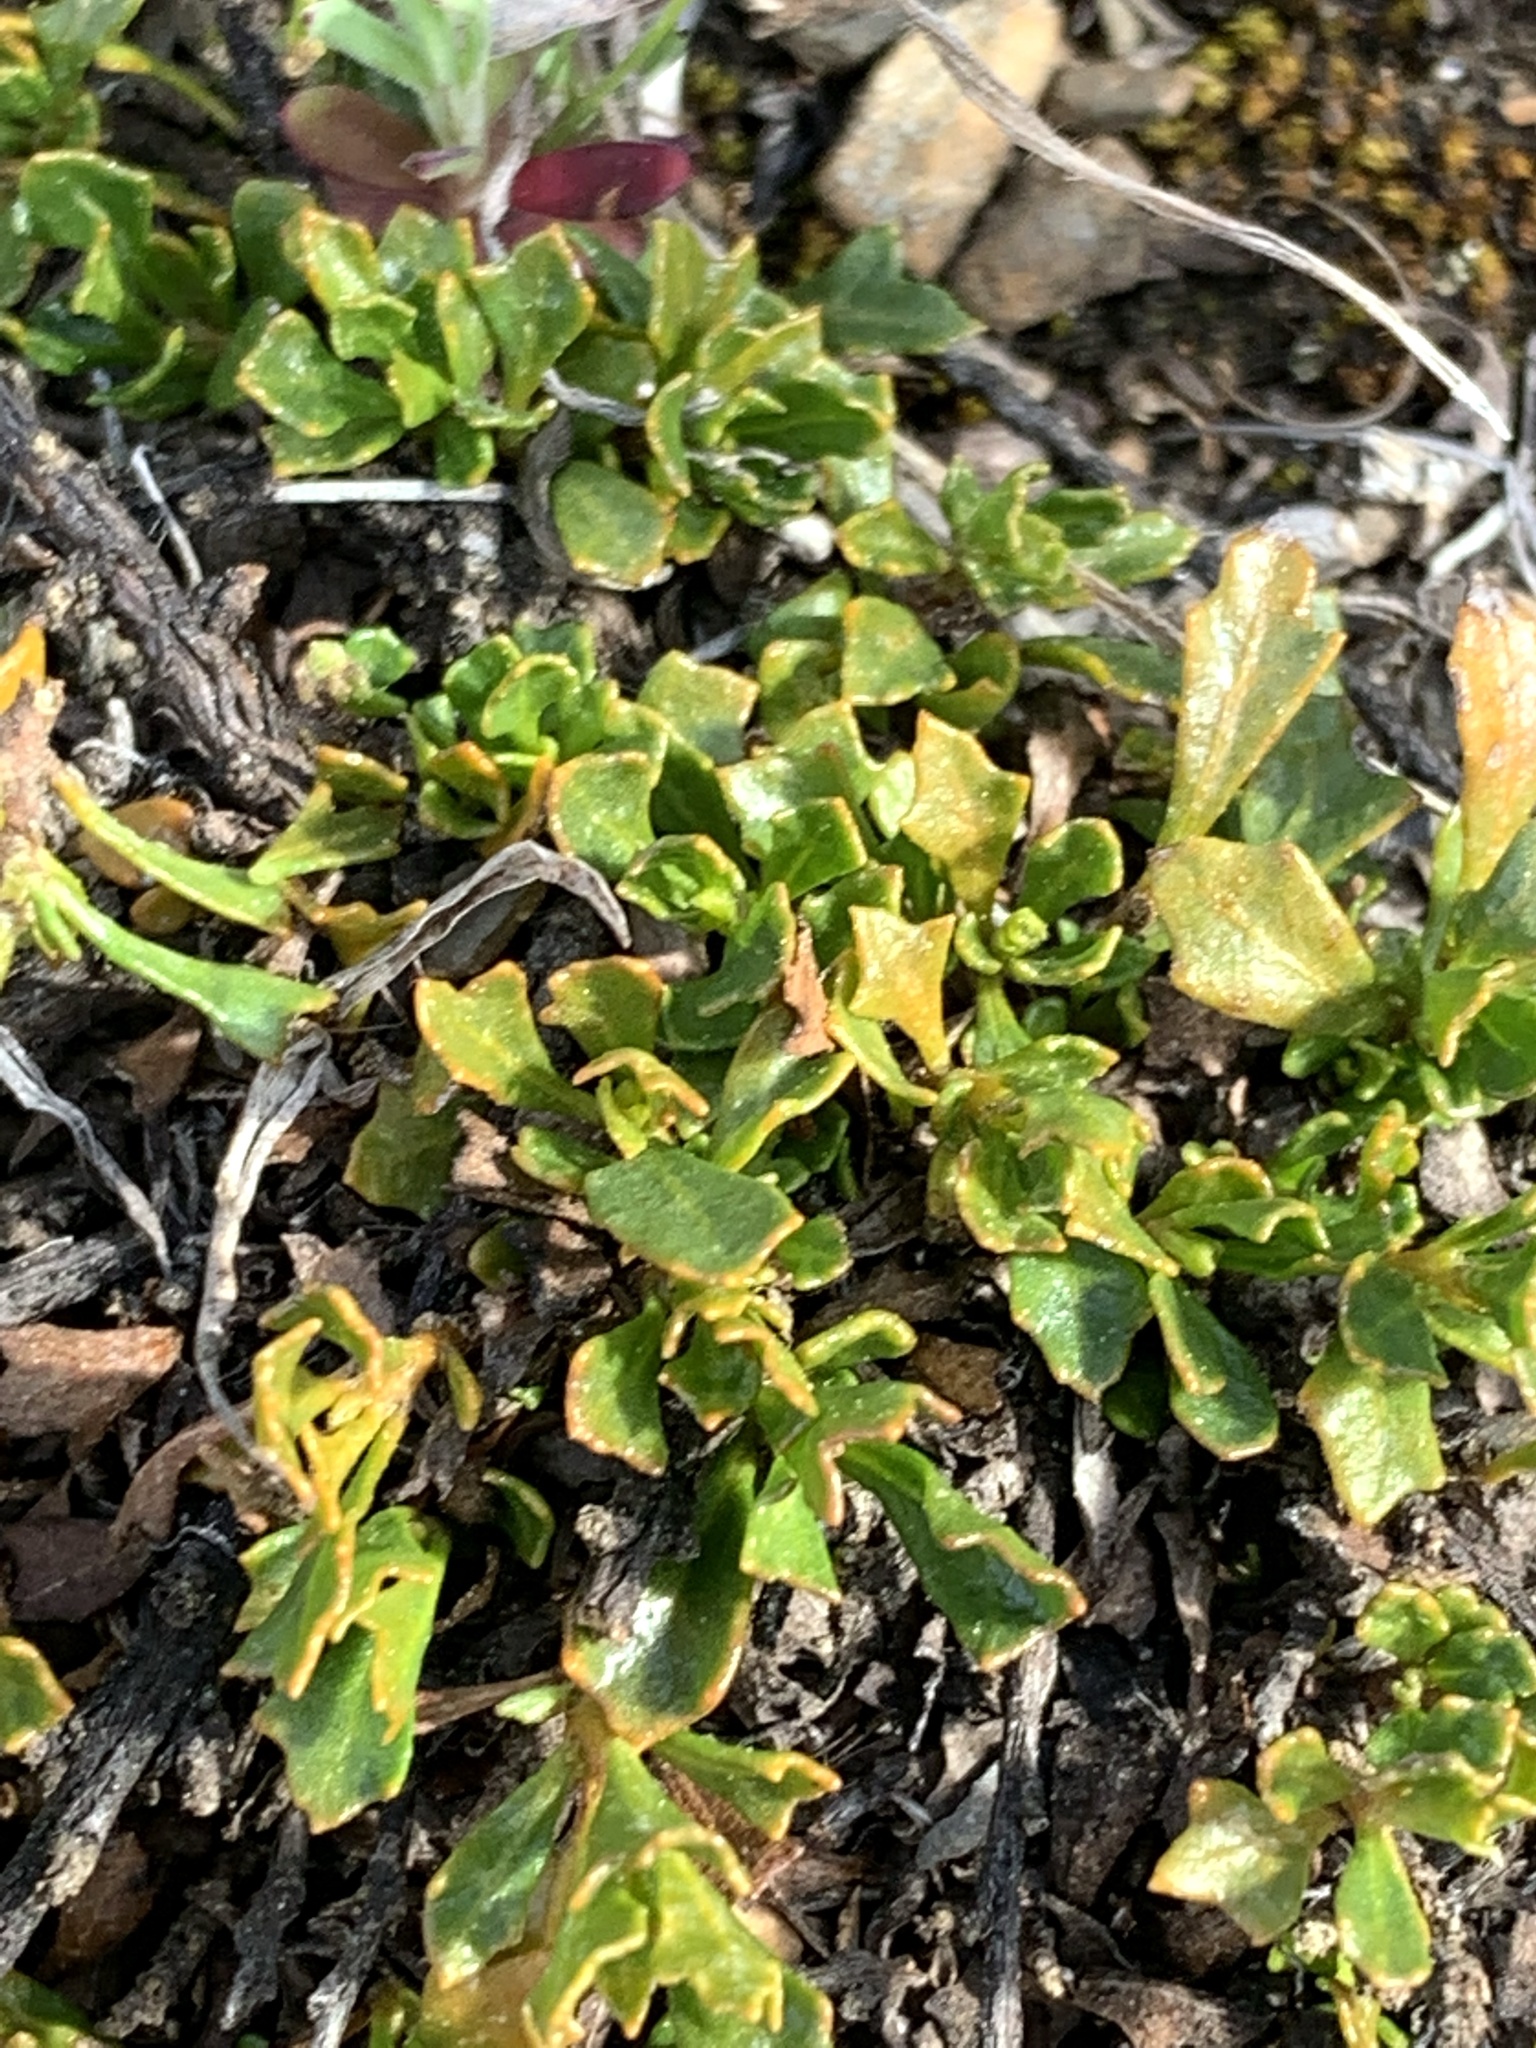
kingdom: Plantae
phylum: Tracheophyta
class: Magnoliopsida
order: Sapindales
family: Sapindaceae
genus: Dodonaea
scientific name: Dodonaea procumbens
